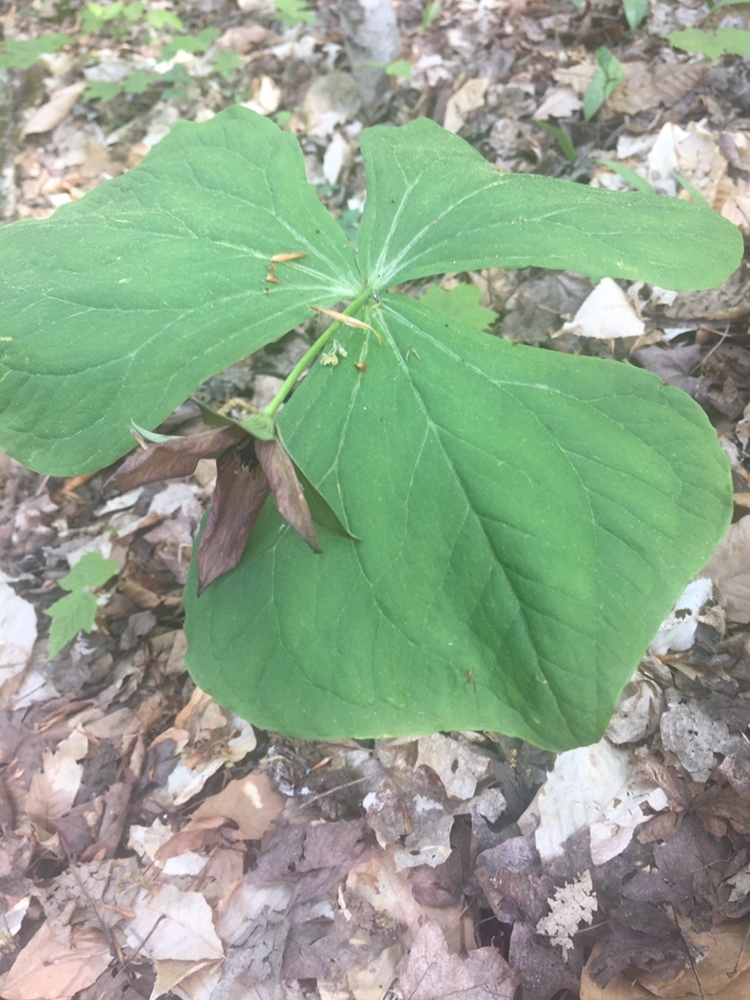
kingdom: Plantae
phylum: Tracheophyta
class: Liliopsida
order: Liliales
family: Melanthiaceae
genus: Trillium
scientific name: Trillium erectum
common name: Purple trillium
